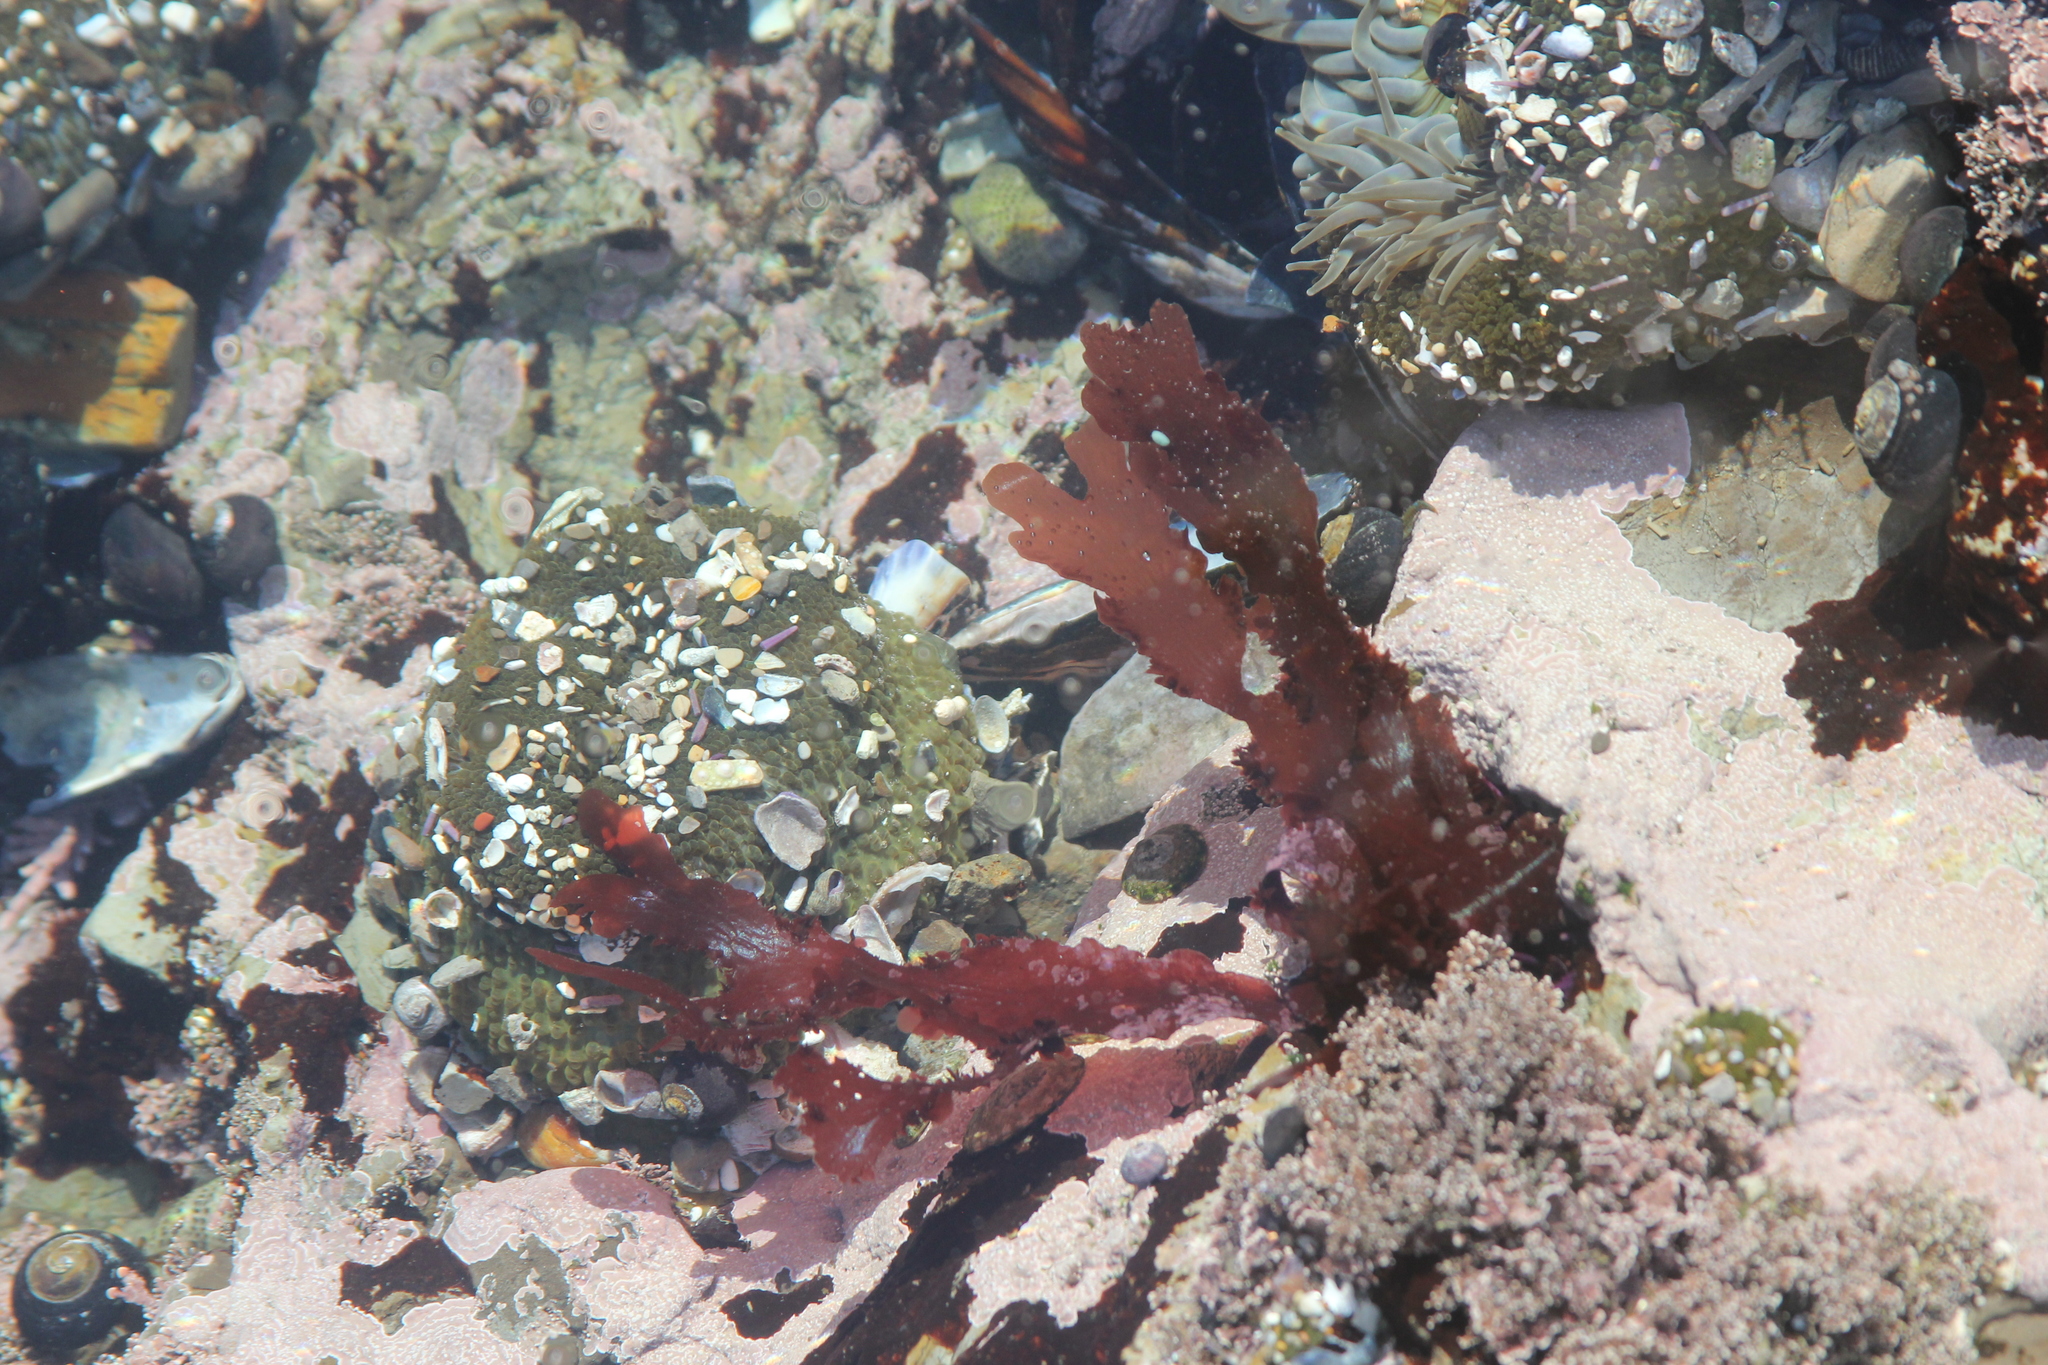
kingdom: Plantae
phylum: Rhodophyta
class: Florideophyceae
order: Ceramiales
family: Delesseriaceae
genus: Cryptopleura
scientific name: Cryptopleura ruprechtiana
